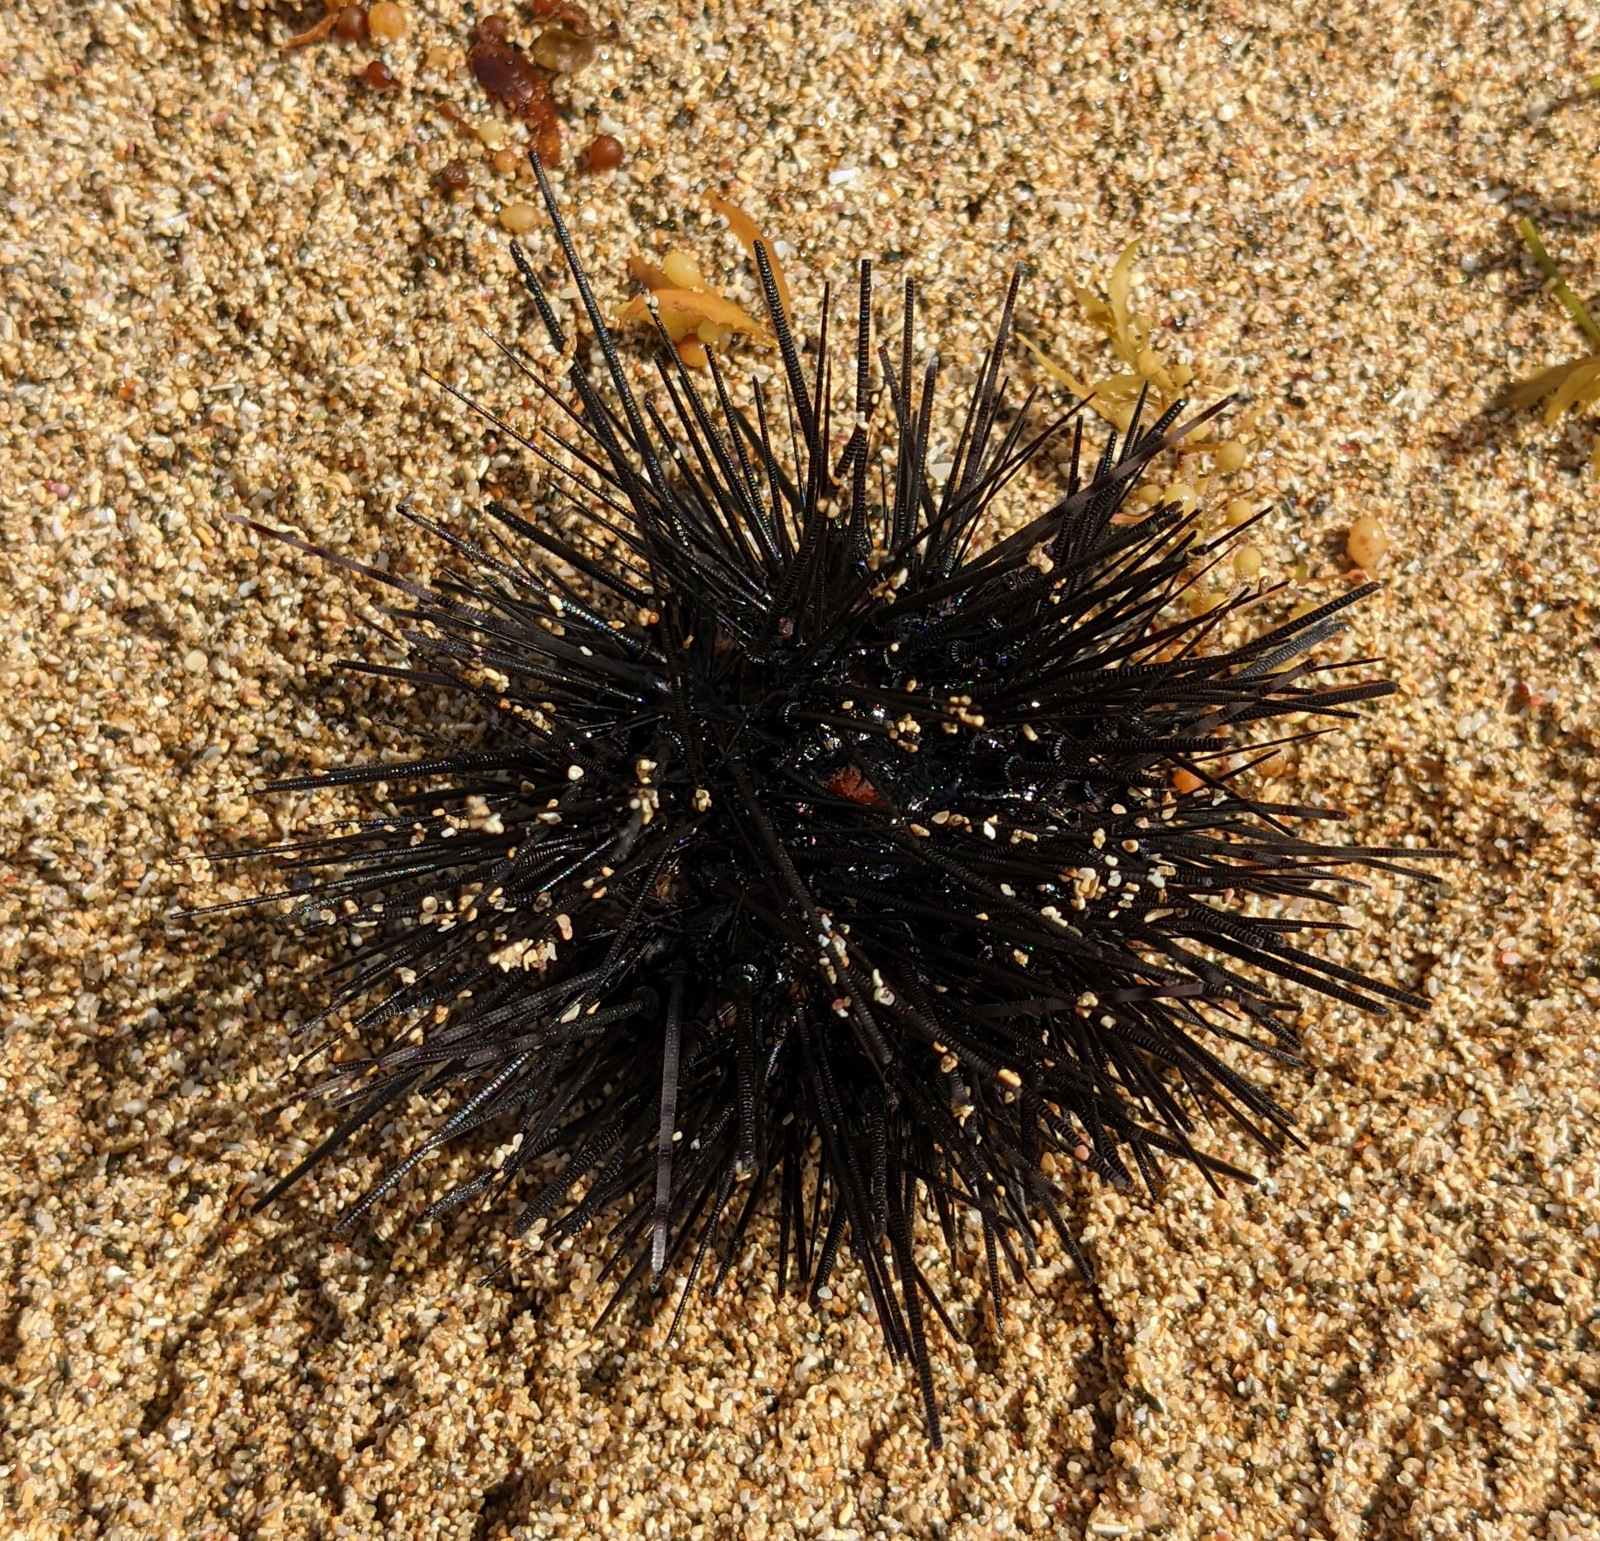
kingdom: Animalia
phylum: Echinodermata
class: Echinoidea
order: Camarodonta
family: Echinometridae
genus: Echinometra
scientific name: Echinometra lucunter
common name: Rock urchin
